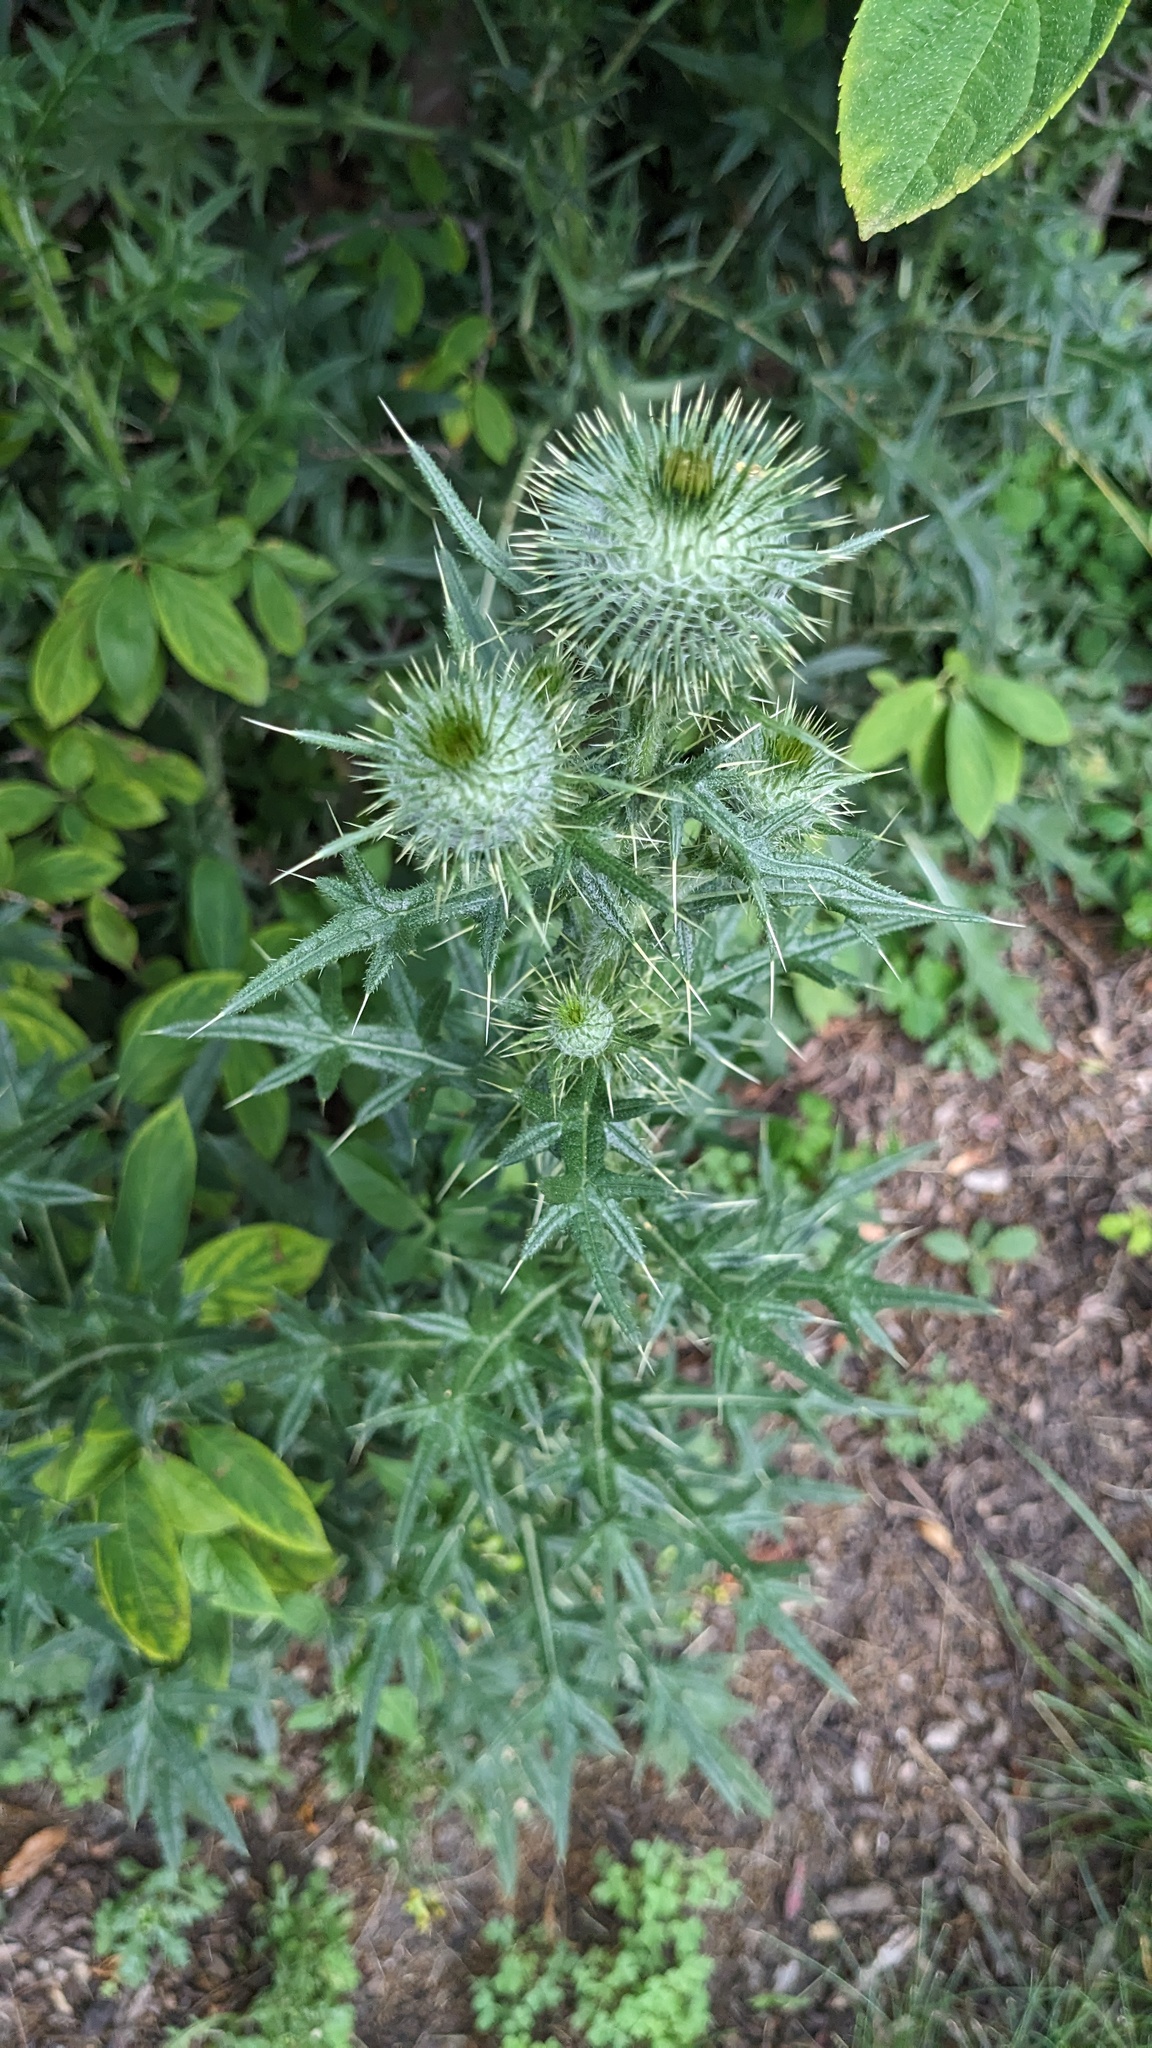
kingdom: Plantae
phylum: Tracheophyta
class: Magnoliopsida
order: Asterales
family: Asteraceae
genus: Cirsium
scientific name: Cirsium vulgare
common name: Bull thistle
